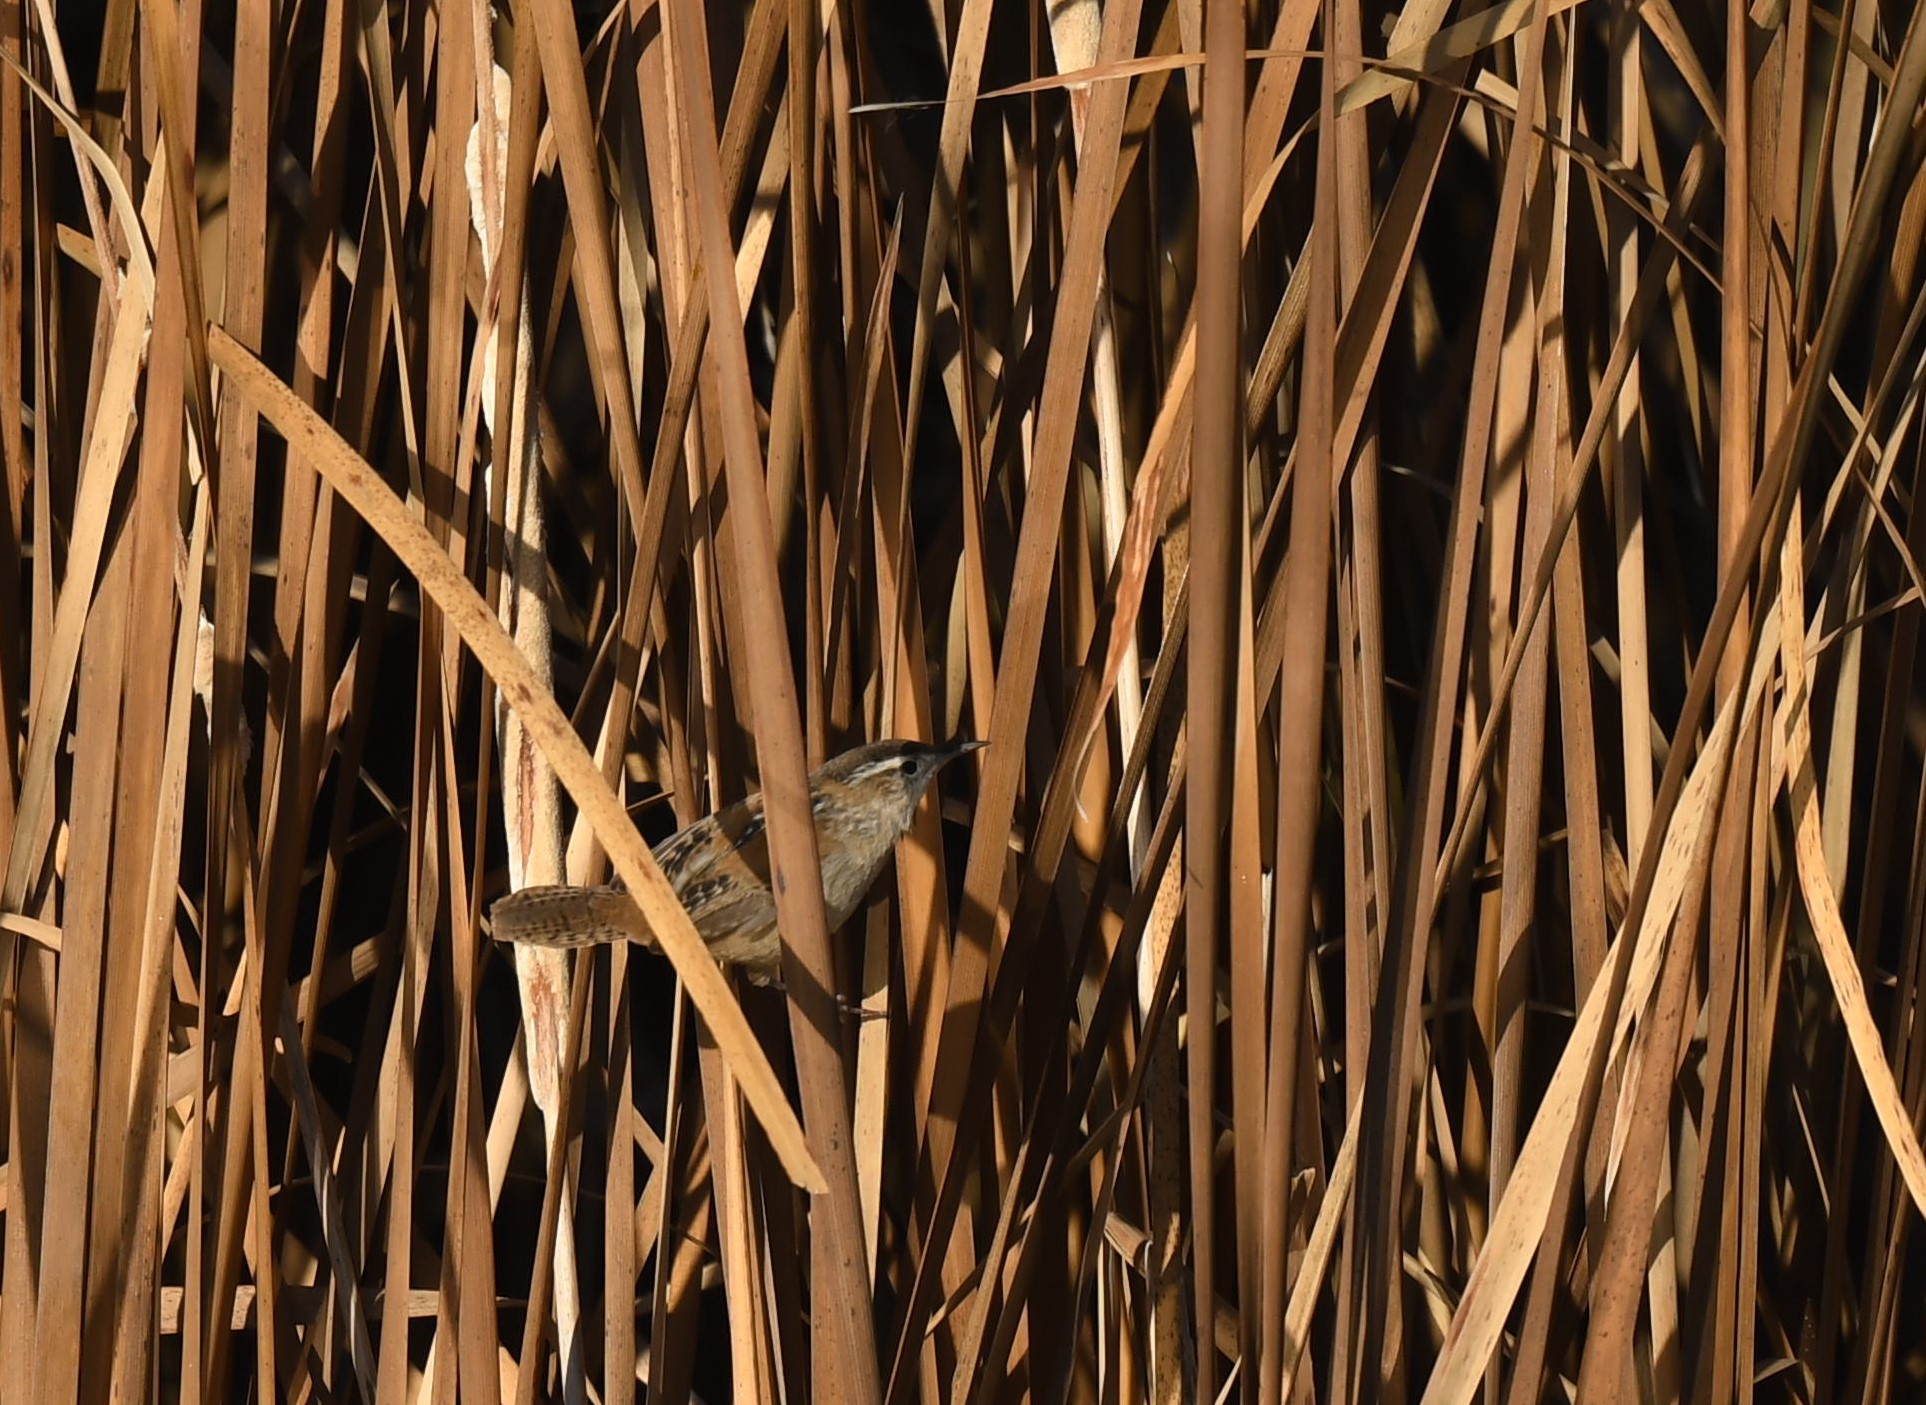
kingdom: Animalia
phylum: Chordata
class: Aves
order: Passeriformes
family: Troglodytidae
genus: Cistothorus
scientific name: Cistothorus palustris
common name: Marsh wren
